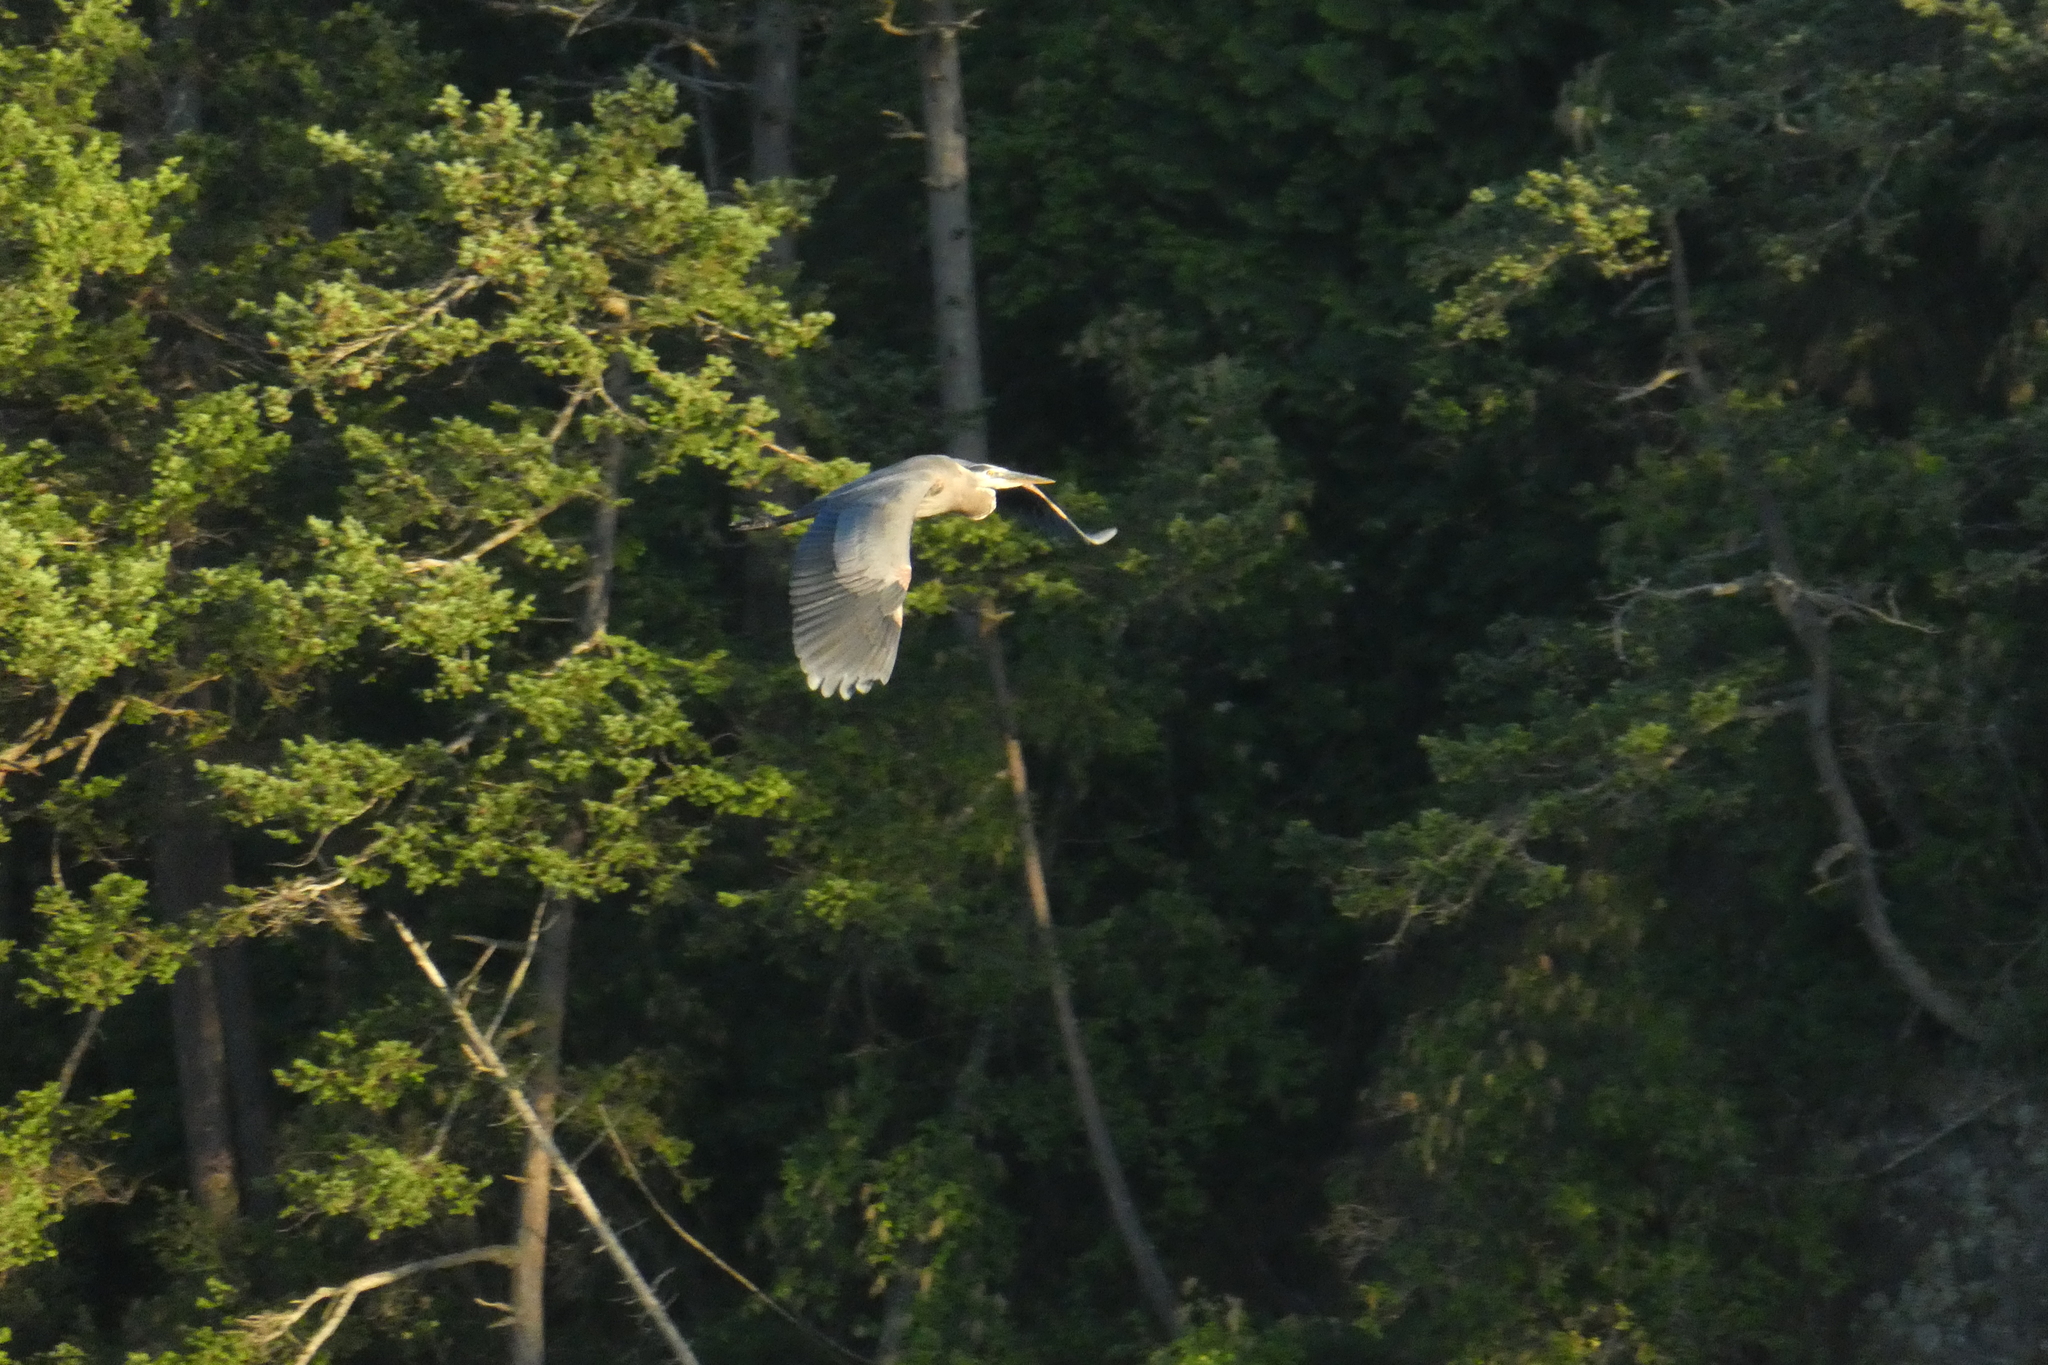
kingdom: Animalia
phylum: Chordata
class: Aves
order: Pelecaniformes
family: Ardeidae
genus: Ardea
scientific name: Ardea herodias
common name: Great blue heron
